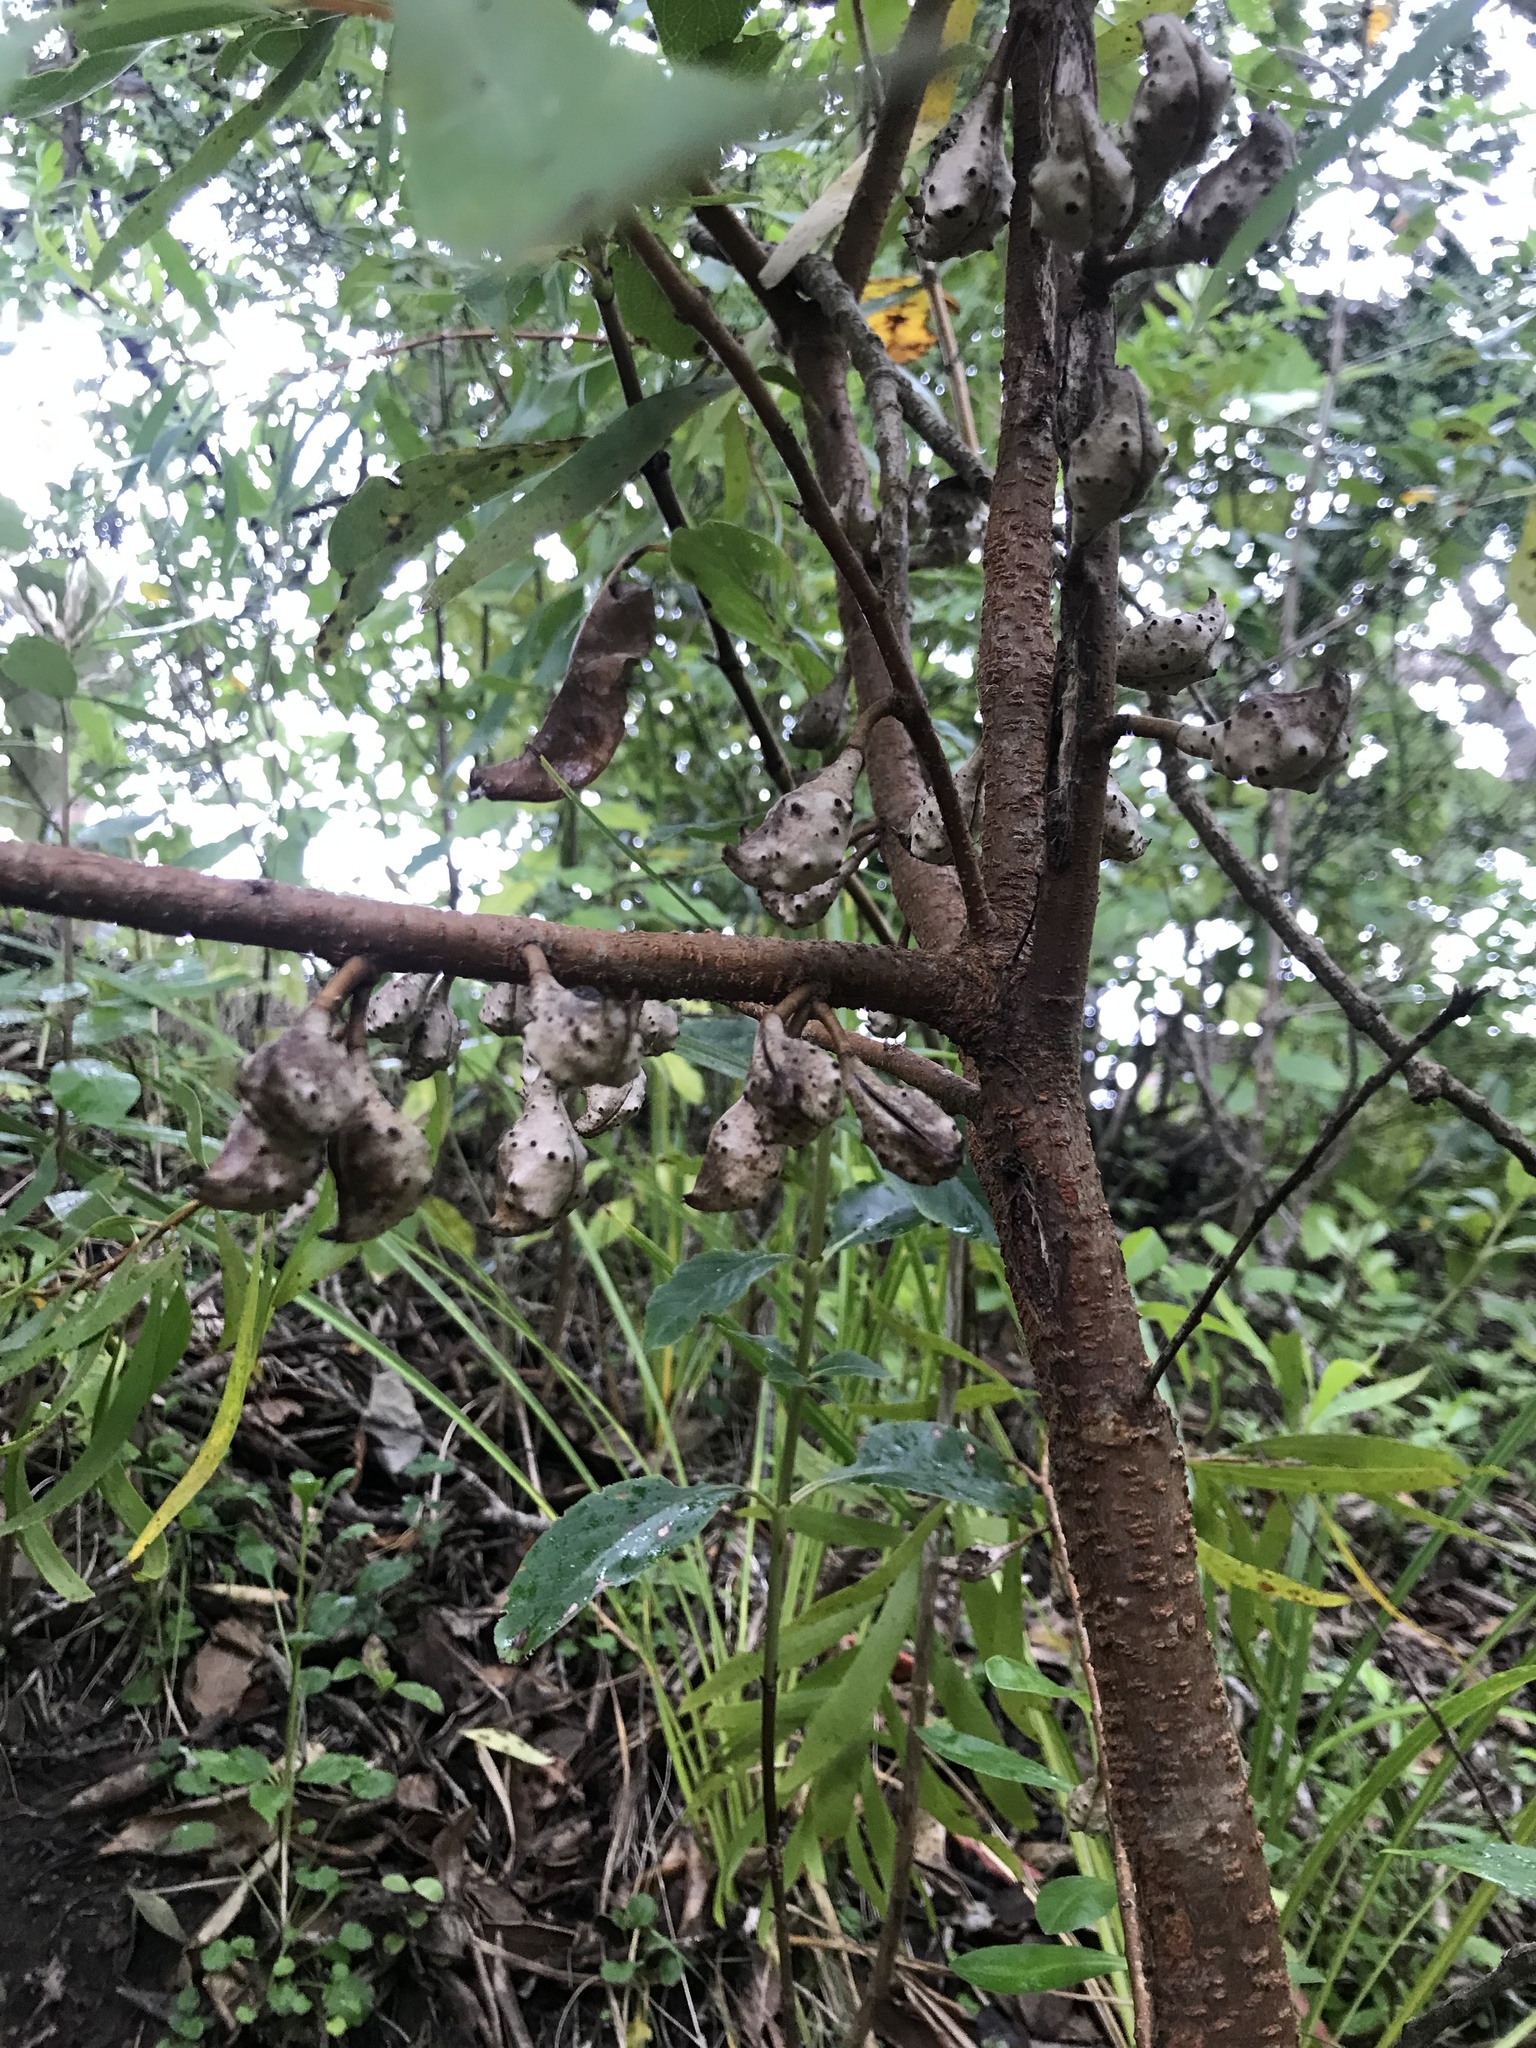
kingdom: Plantae
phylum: Tracheophyta
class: Magnoliopsida
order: Proteales
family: Proteaceae
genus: Hakea
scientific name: Hakea salicifolia
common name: Willow hakea
